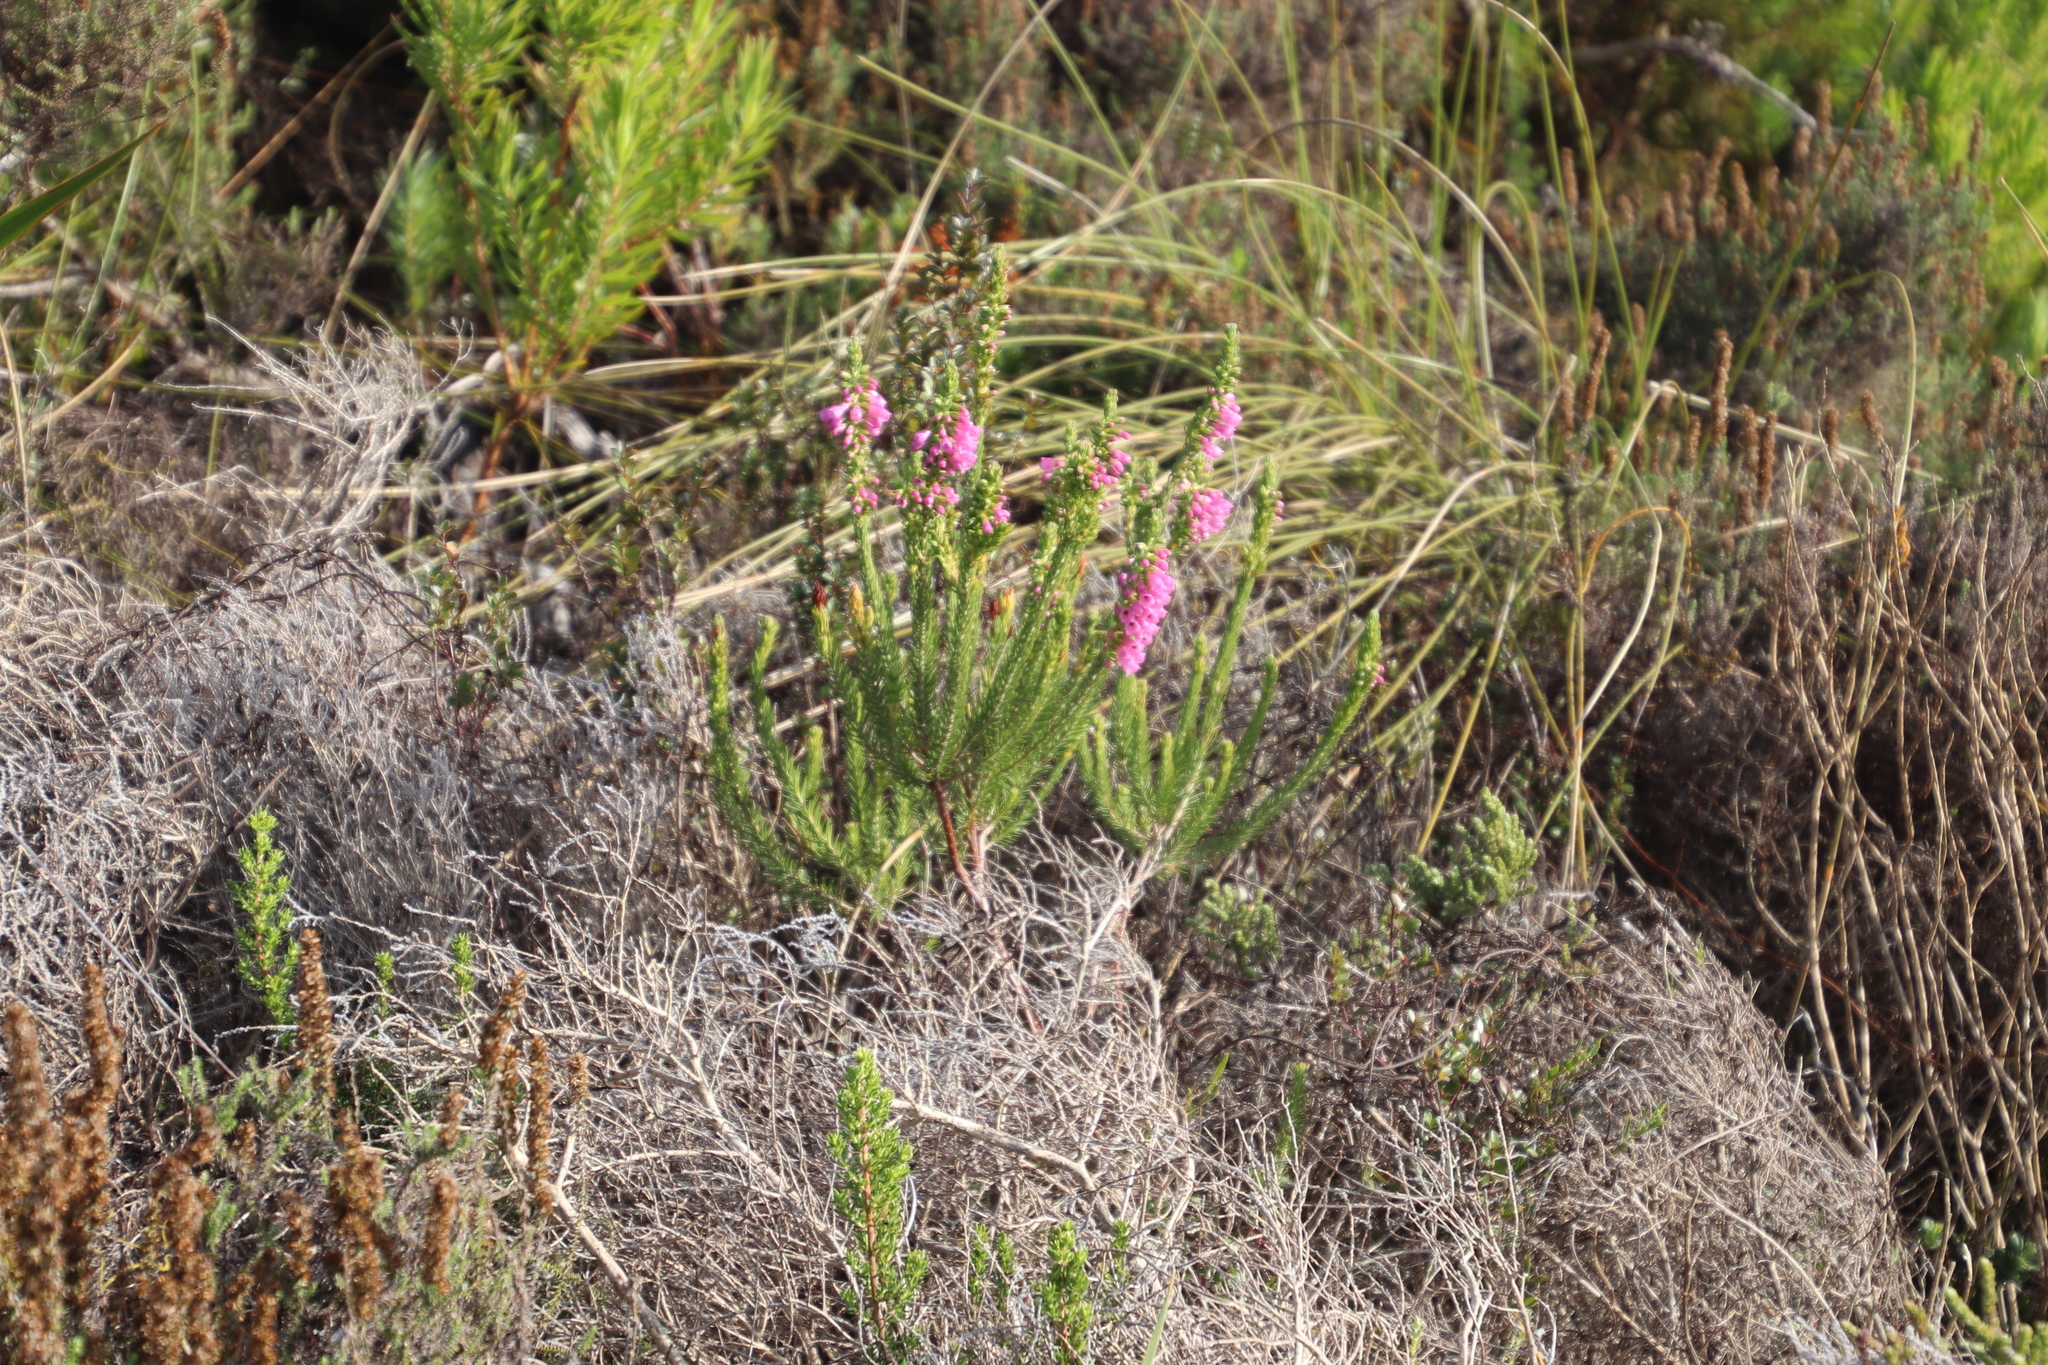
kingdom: Plantae
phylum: Tracheophyta
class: Magnoliopsida
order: Ericales
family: Ericaceae
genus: Erica
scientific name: Erica abietina
